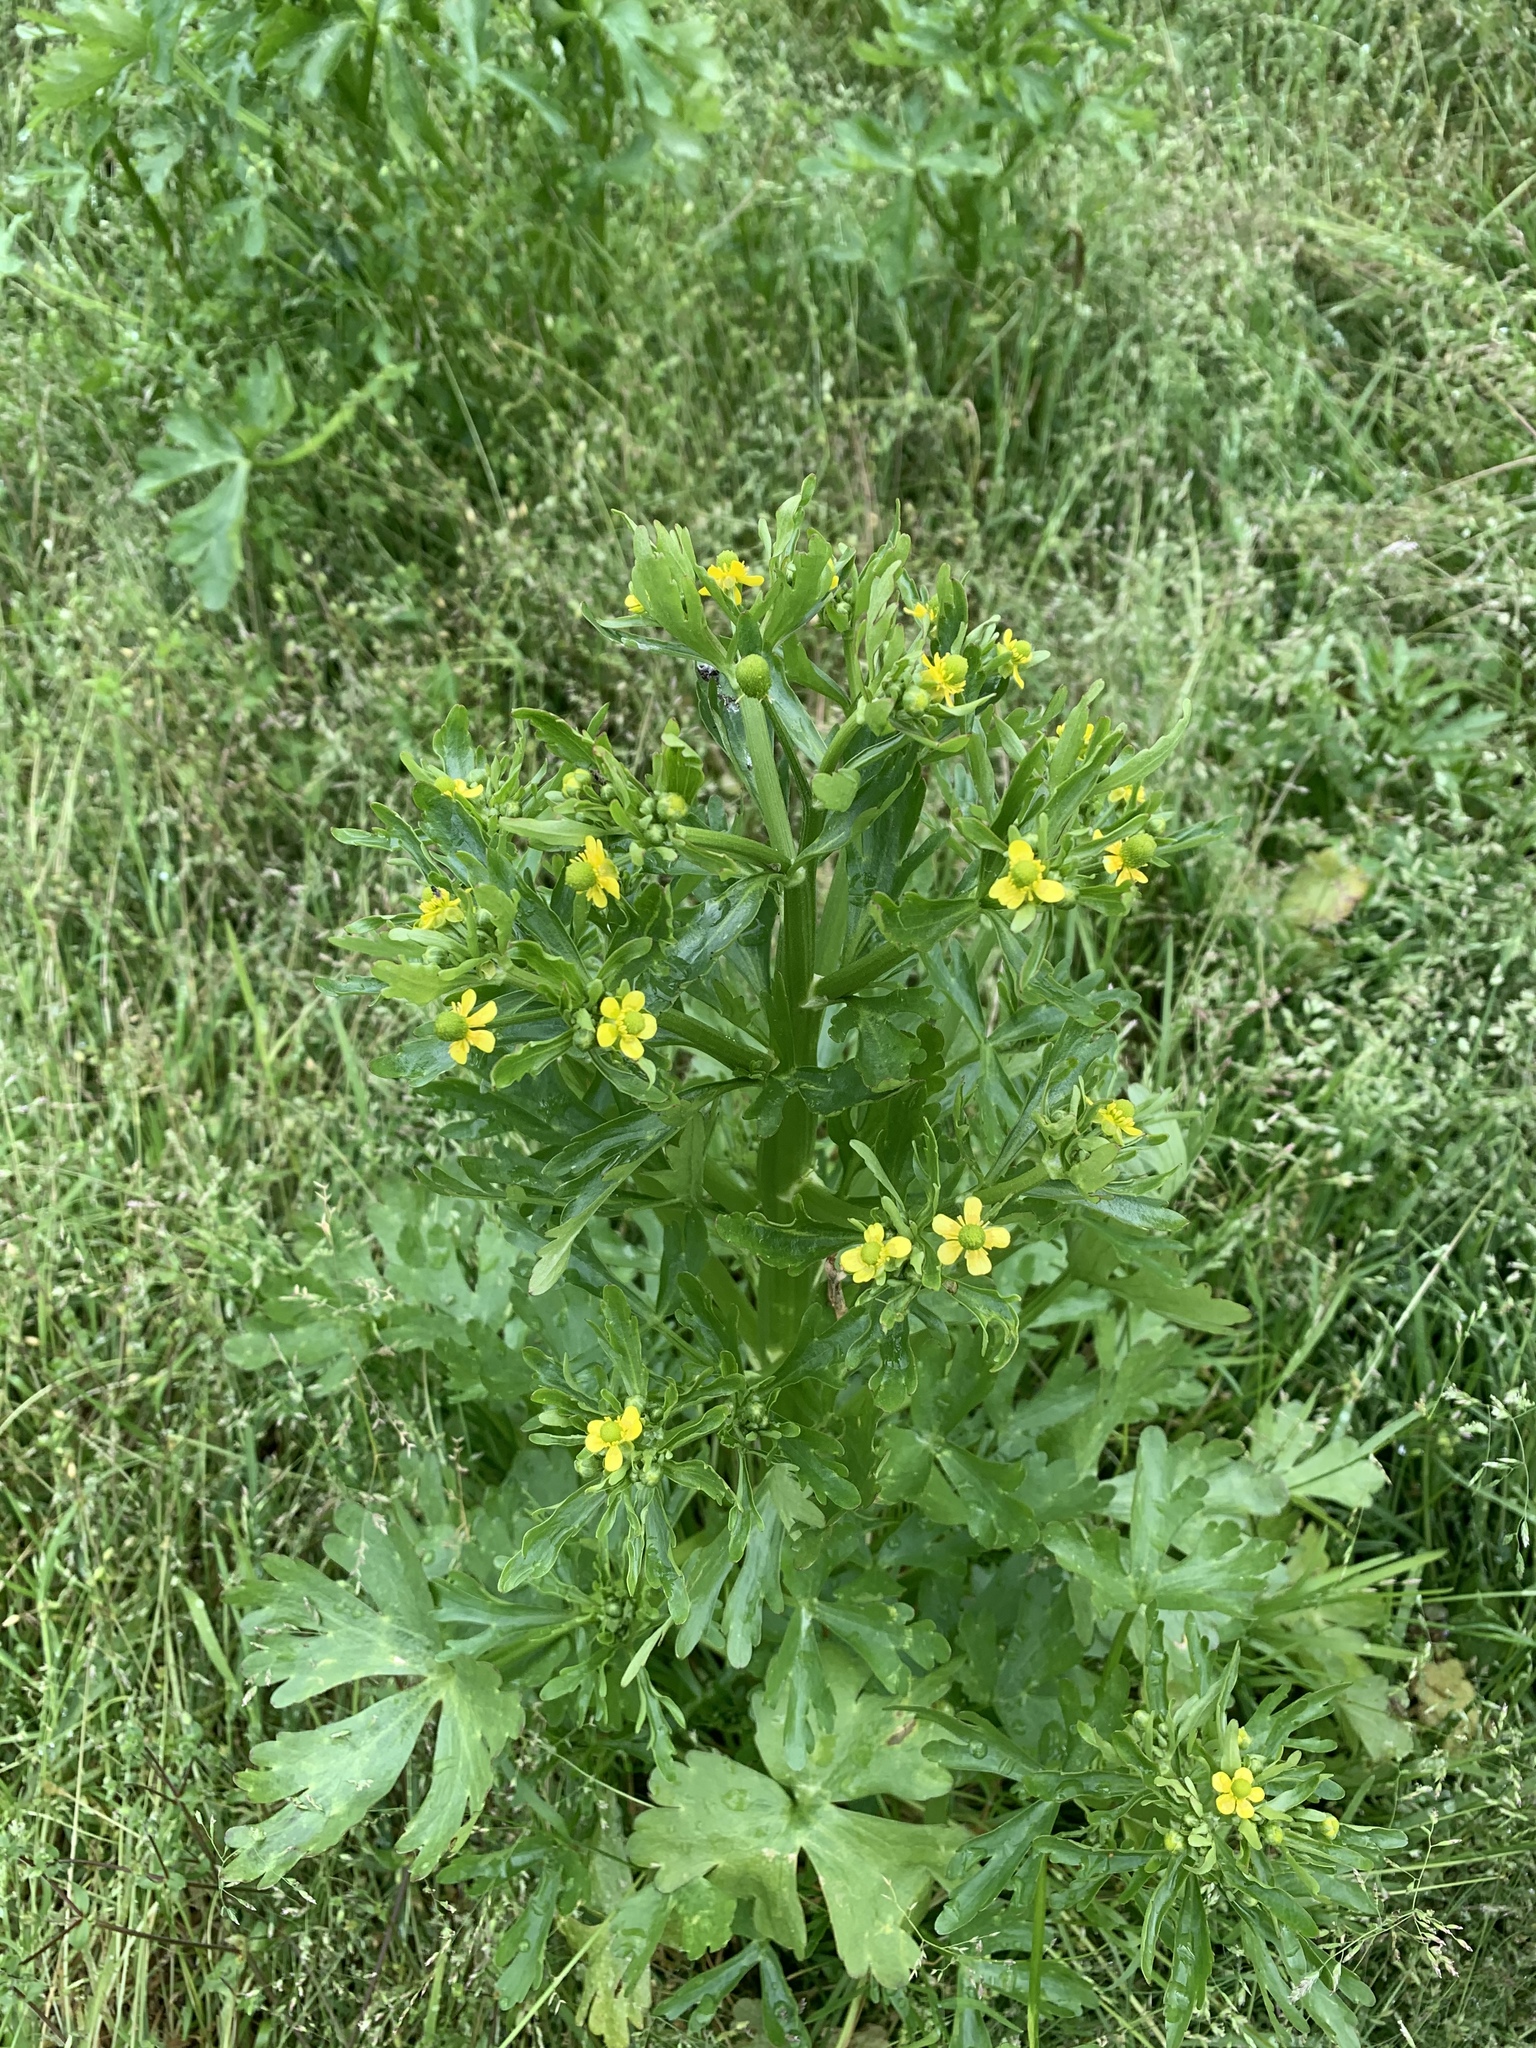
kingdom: Plantae
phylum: Tracheophyta
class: Magnoliopsida
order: Ranunculales
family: Ranunculaceae
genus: Ranunculus
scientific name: Ranunculus sceleratus
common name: Celery-leaved buttercup
